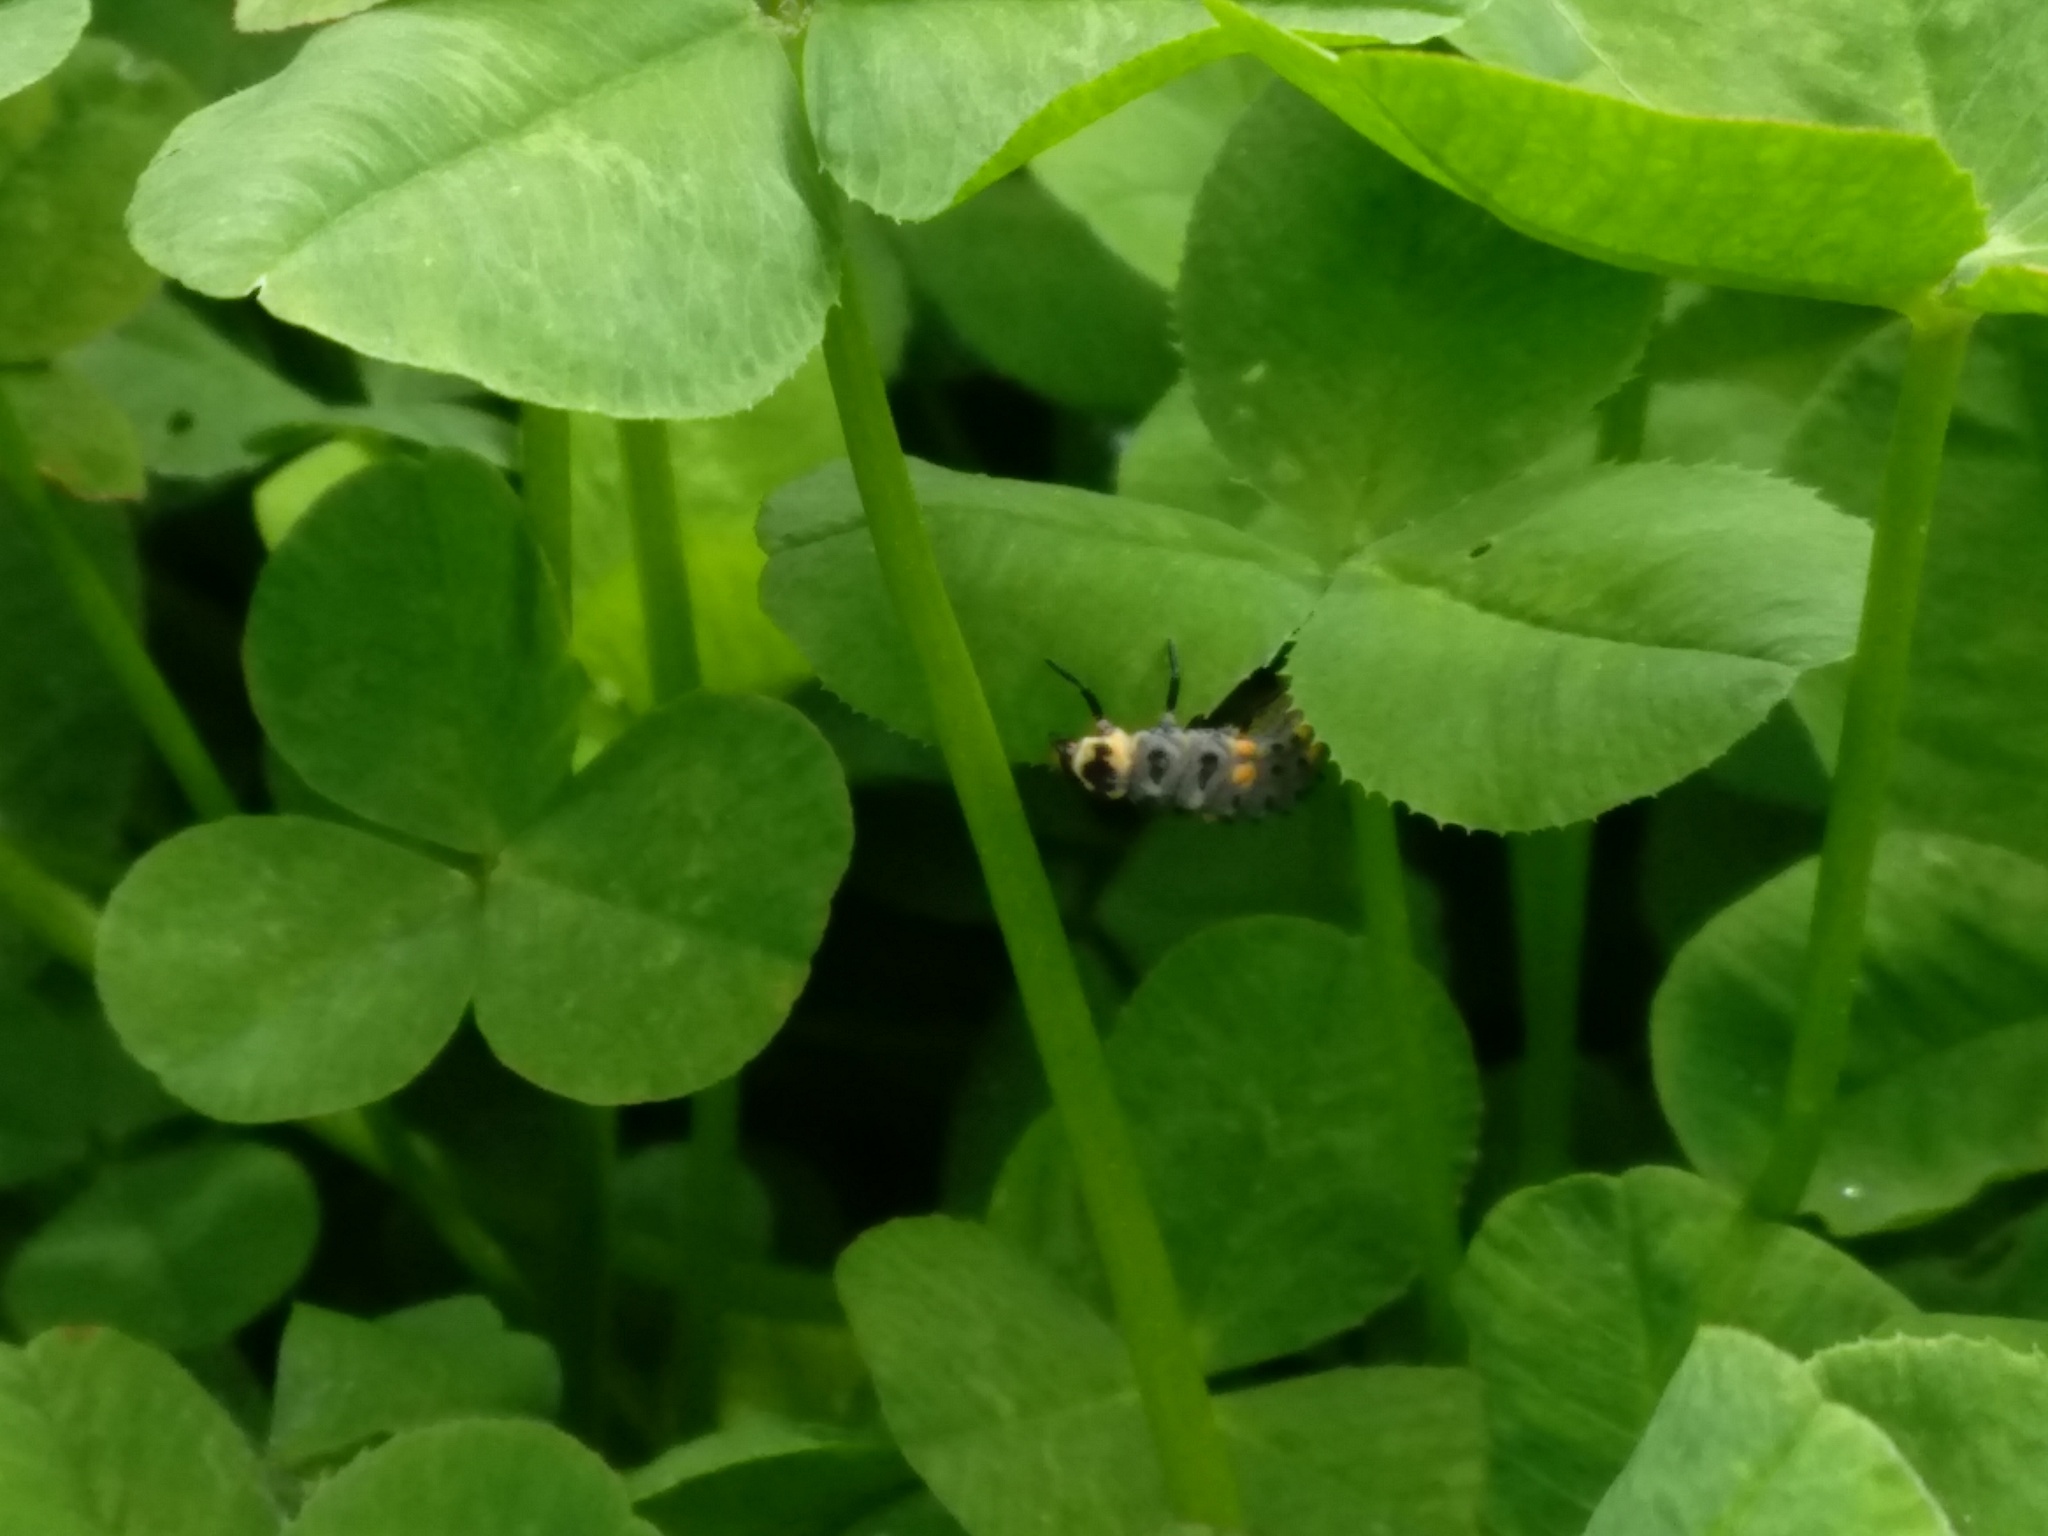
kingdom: Animalia
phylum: Arthropoda
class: Insecta
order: Coleoptera
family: Coccinellidae
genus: Coleomegilla
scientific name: Coleomegilla maculata
